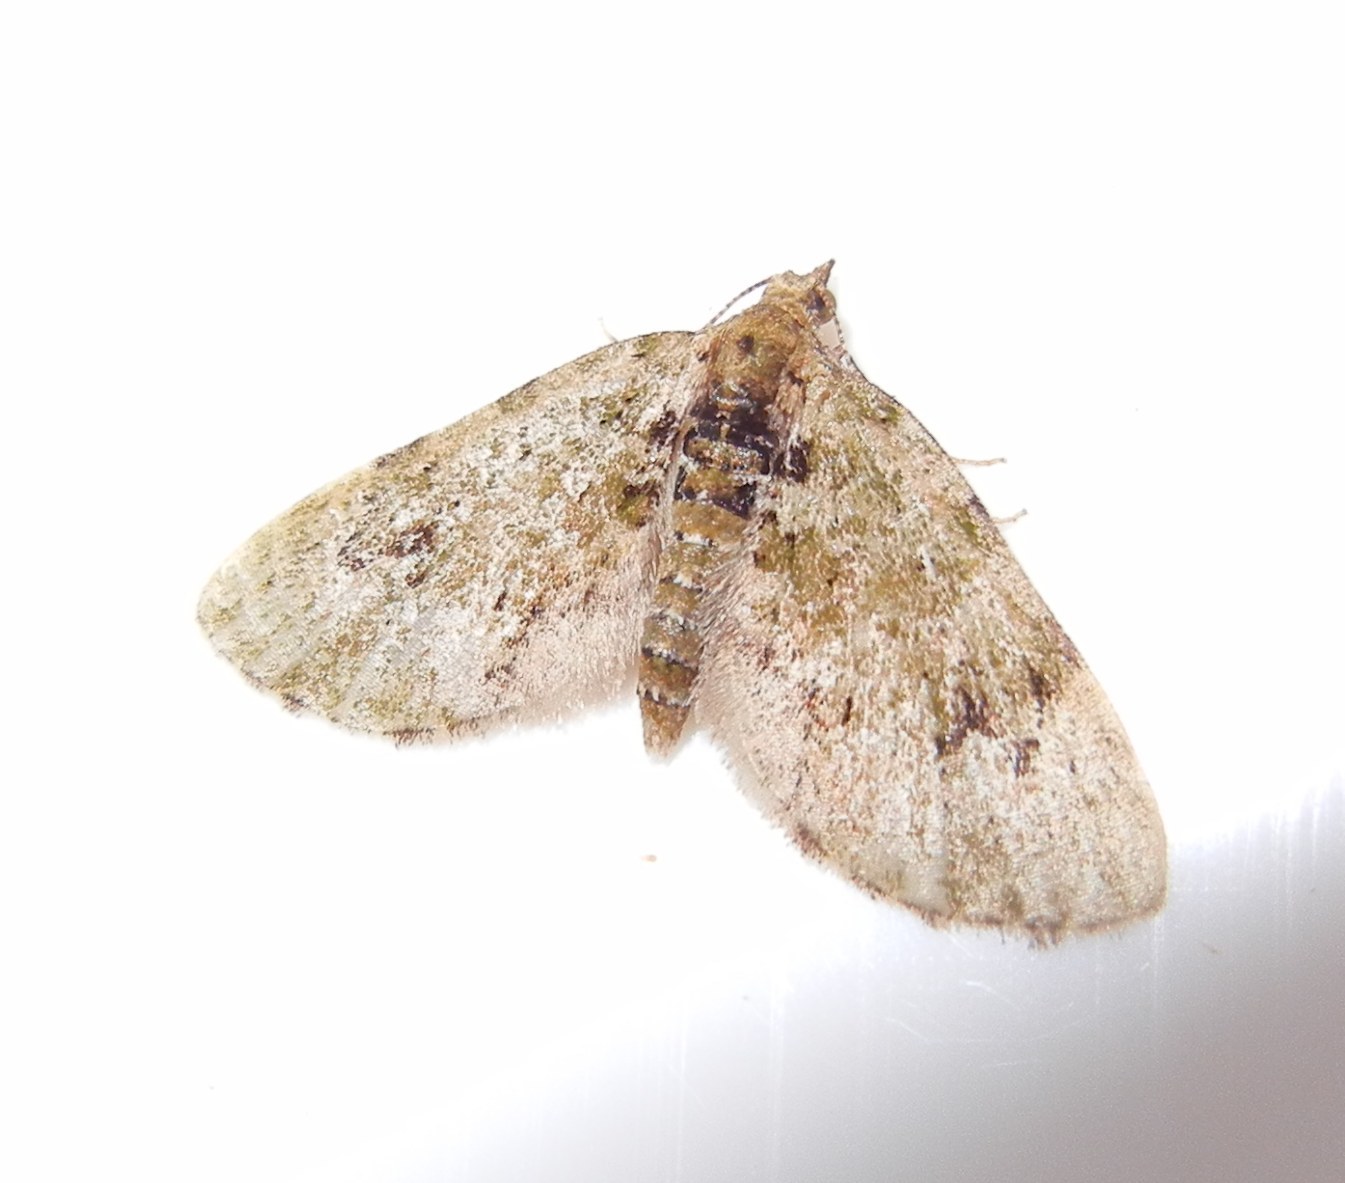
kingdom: Animalia
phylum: Arthropoda
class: Insecta
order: Lepidoptera
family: Geometridae
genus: Chloroclystis
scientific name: Chloroclystis v-ata
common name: V-pug
